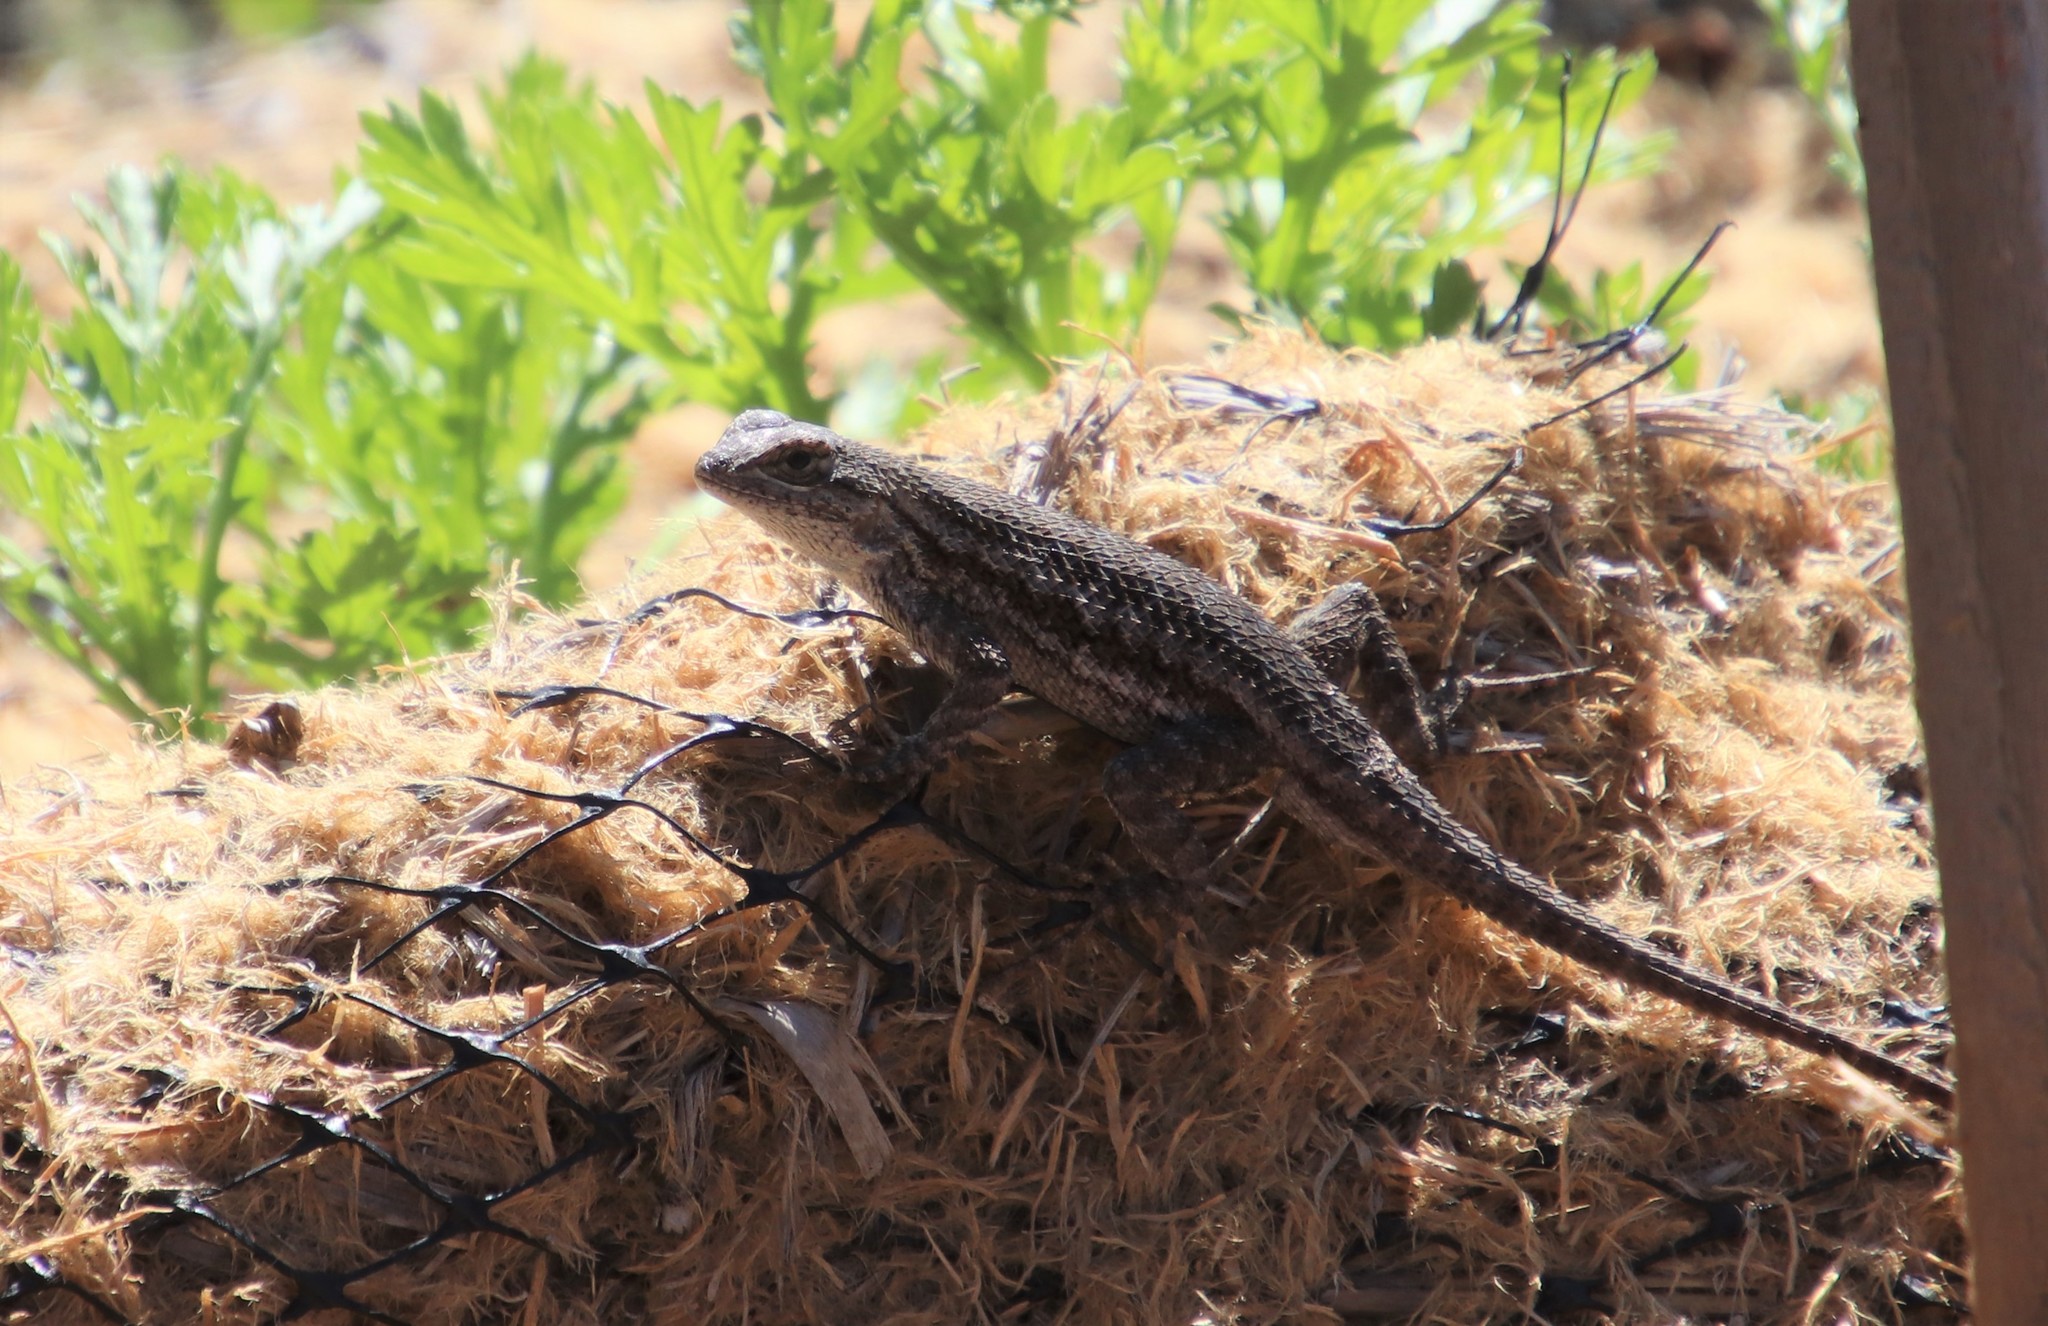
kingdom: Animalia
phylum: Chordata
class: Squamata
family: Phrynosomatidae
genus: Sceloporus
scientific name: Sceloporus occidentalis
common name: Western fence lizard
